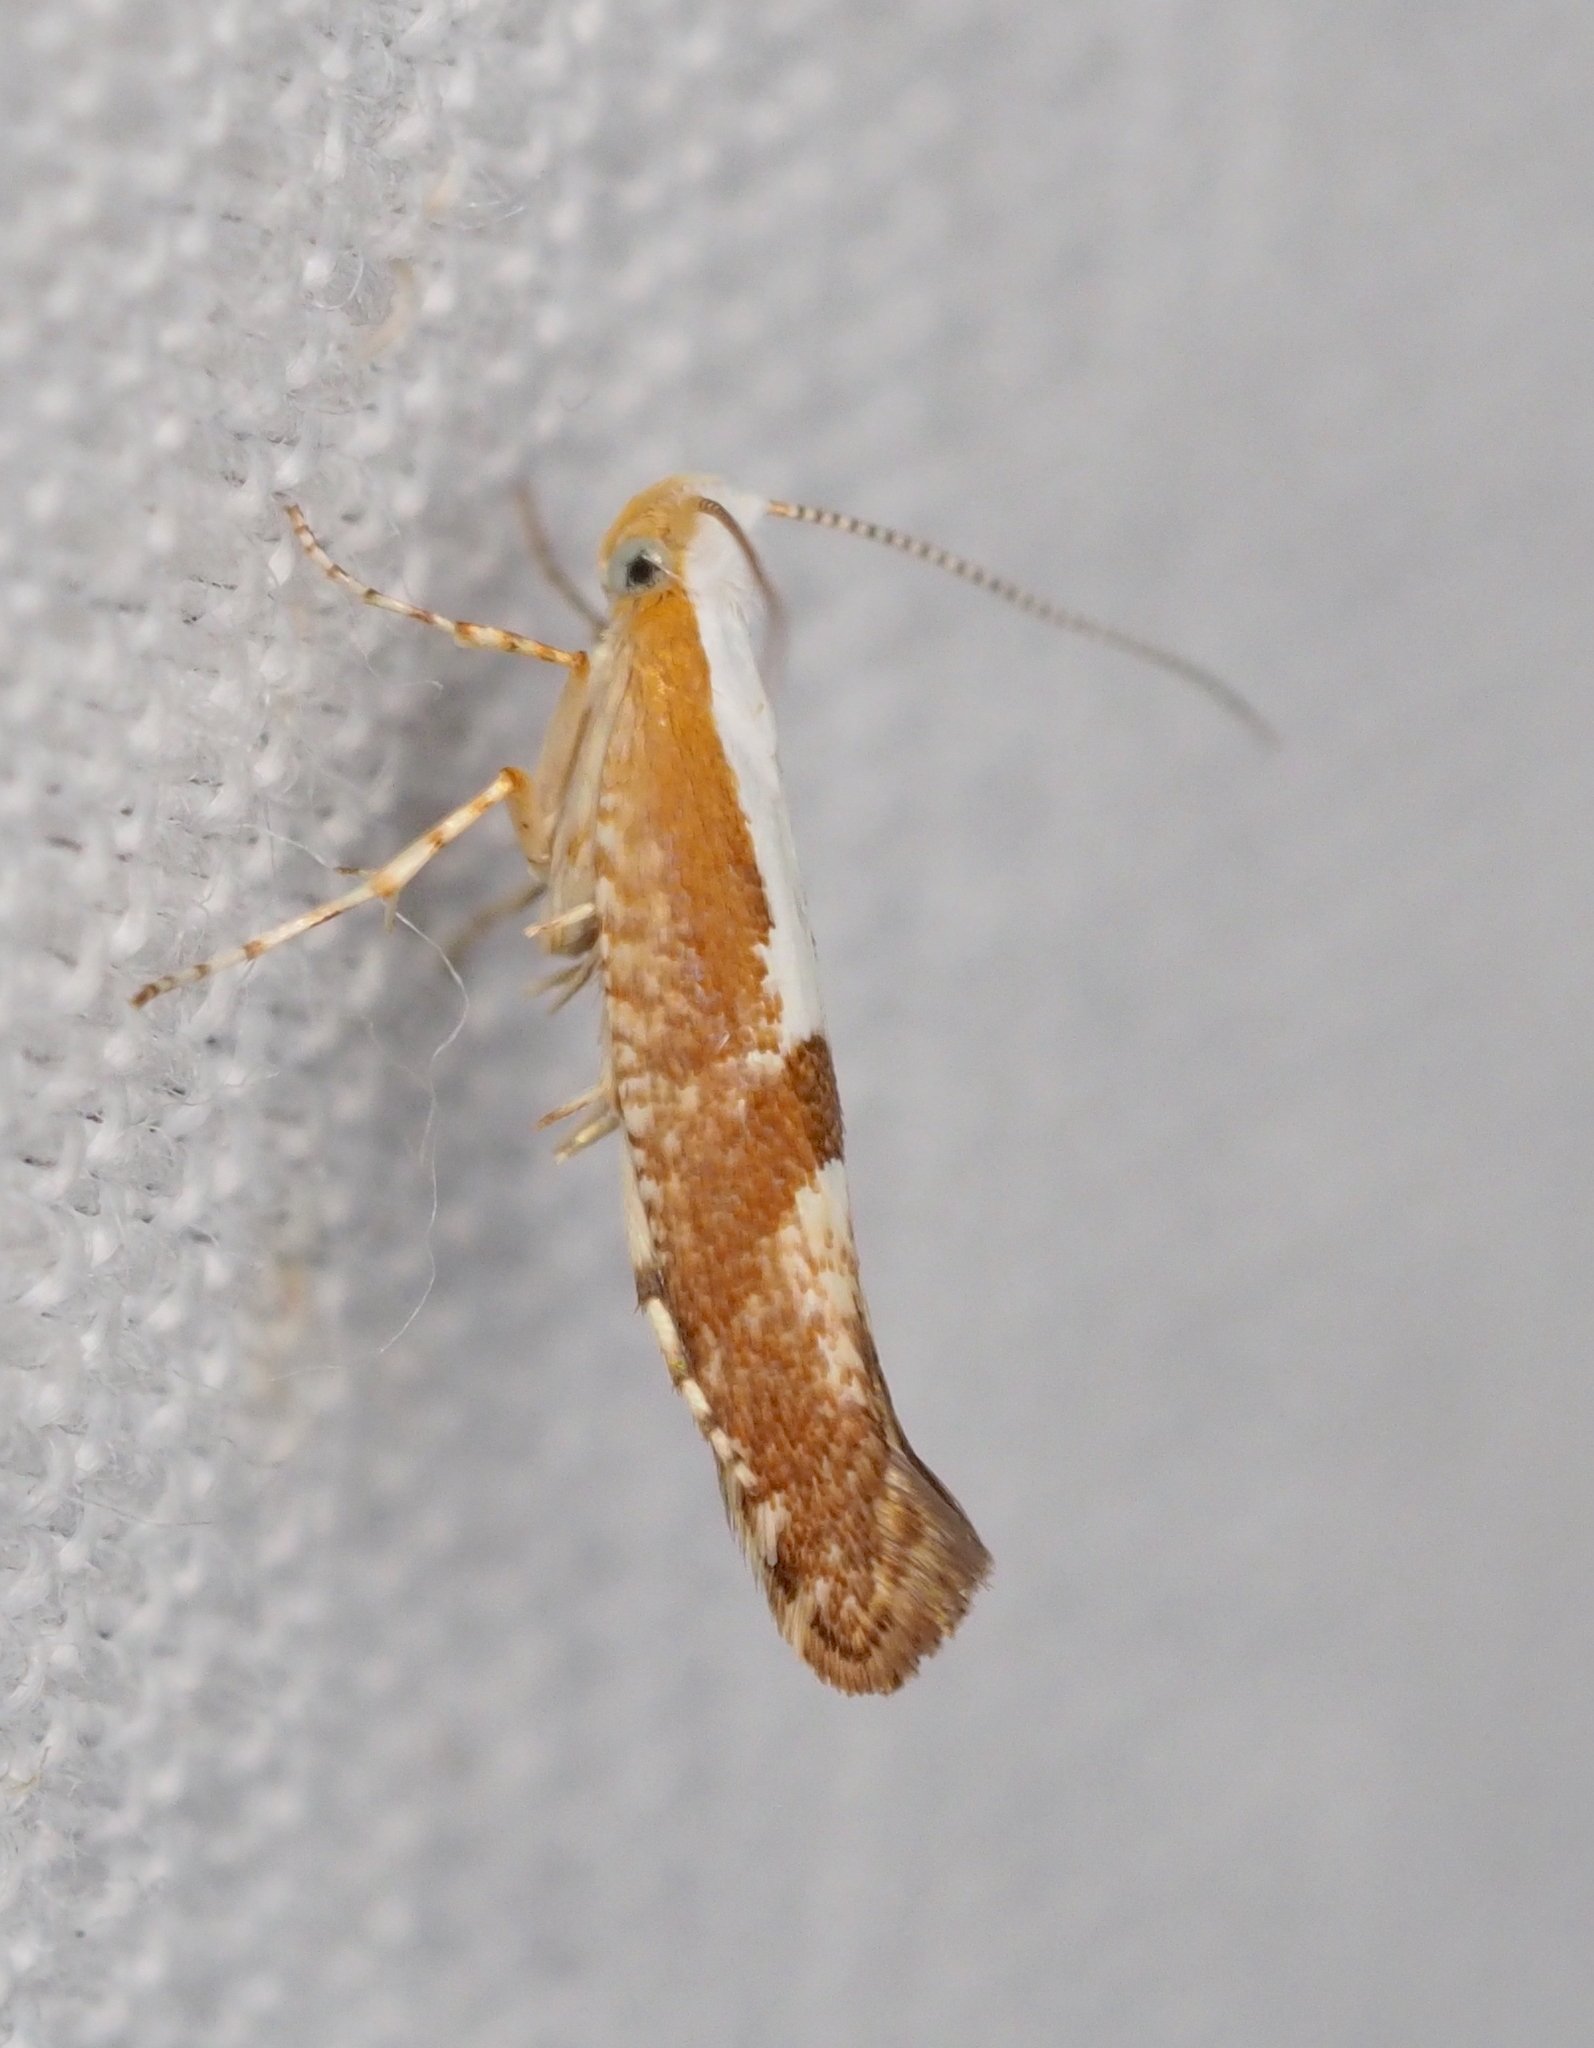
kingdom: Animalia
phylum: Arthropoda
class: Insecta
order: Lepidoptera
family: Argyresthiidae
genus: Argyresthia
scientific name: Argyresthia pruniella
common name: Cherry fruit moth
